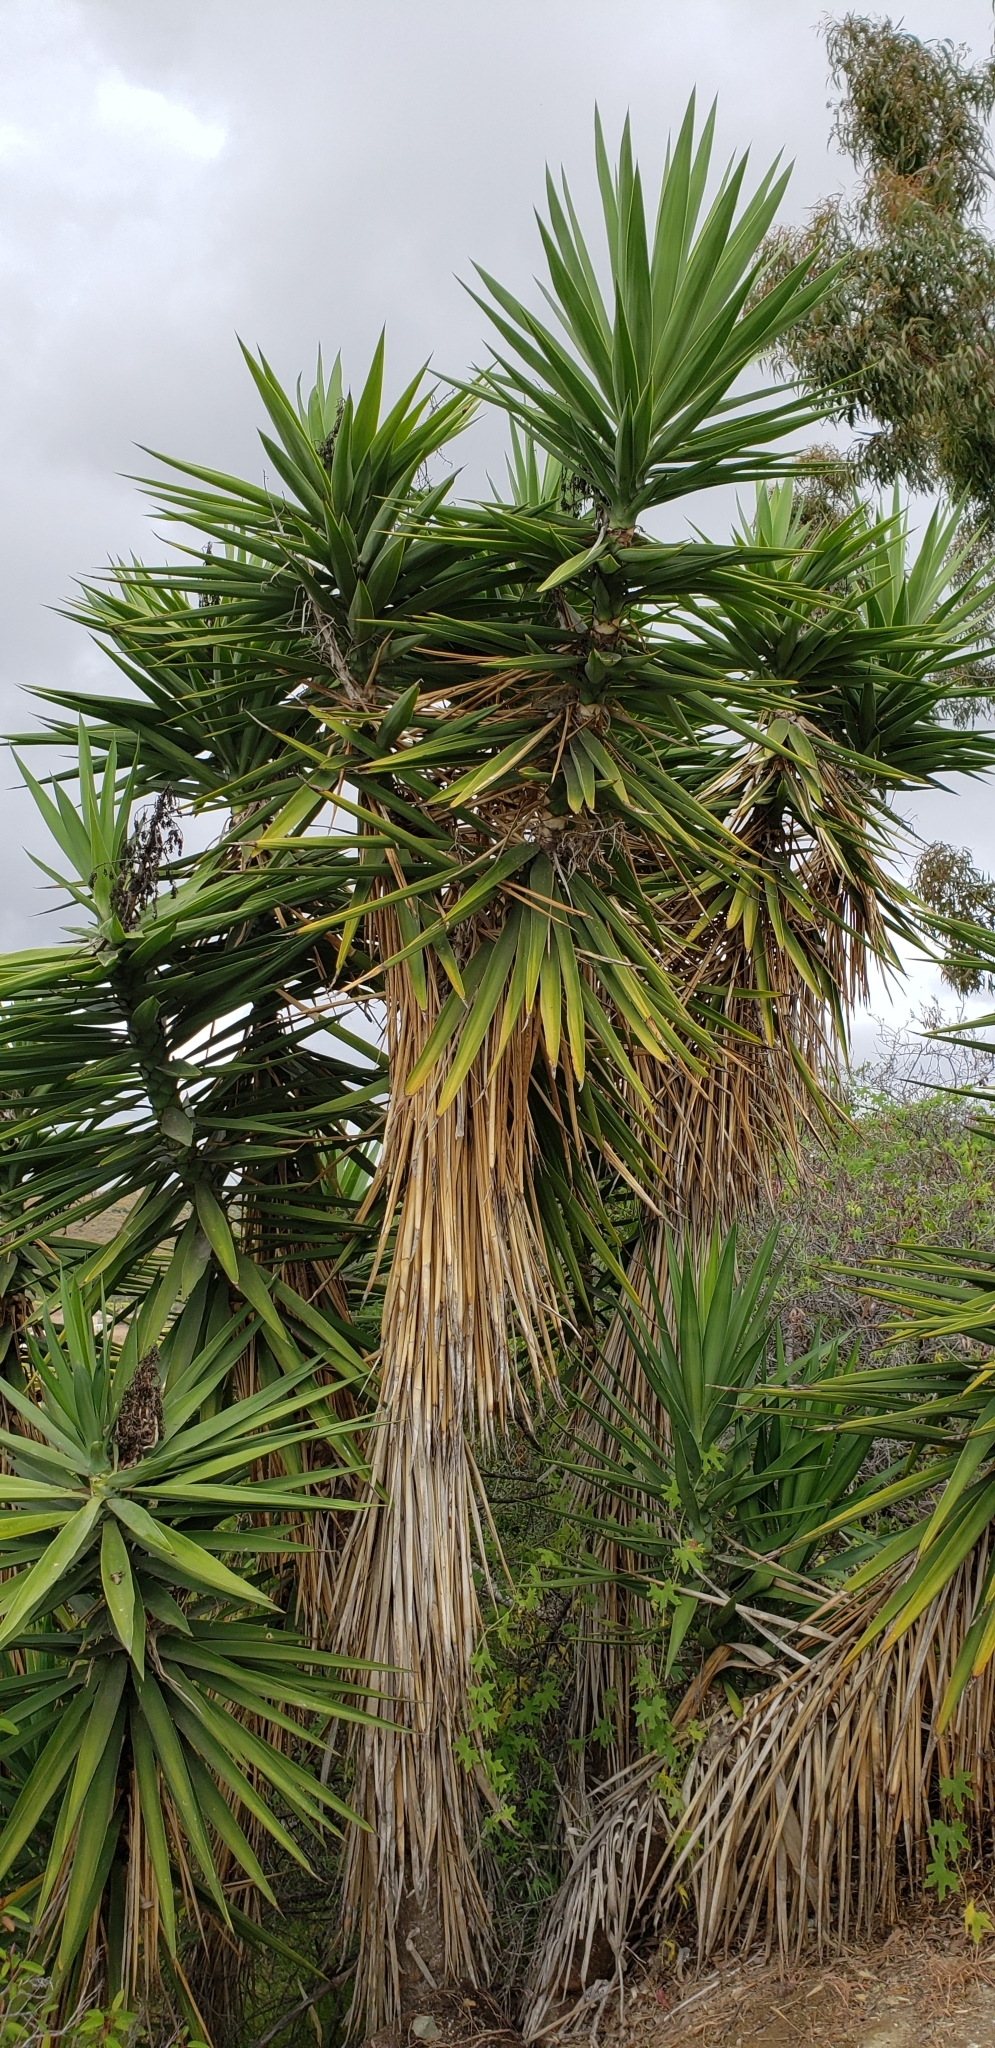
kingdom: Plantae
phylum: Tracheophyta
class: Liliopsida
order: Asparagales
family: Asparagaceae
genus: Yucca
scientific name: Yucca gigantea
